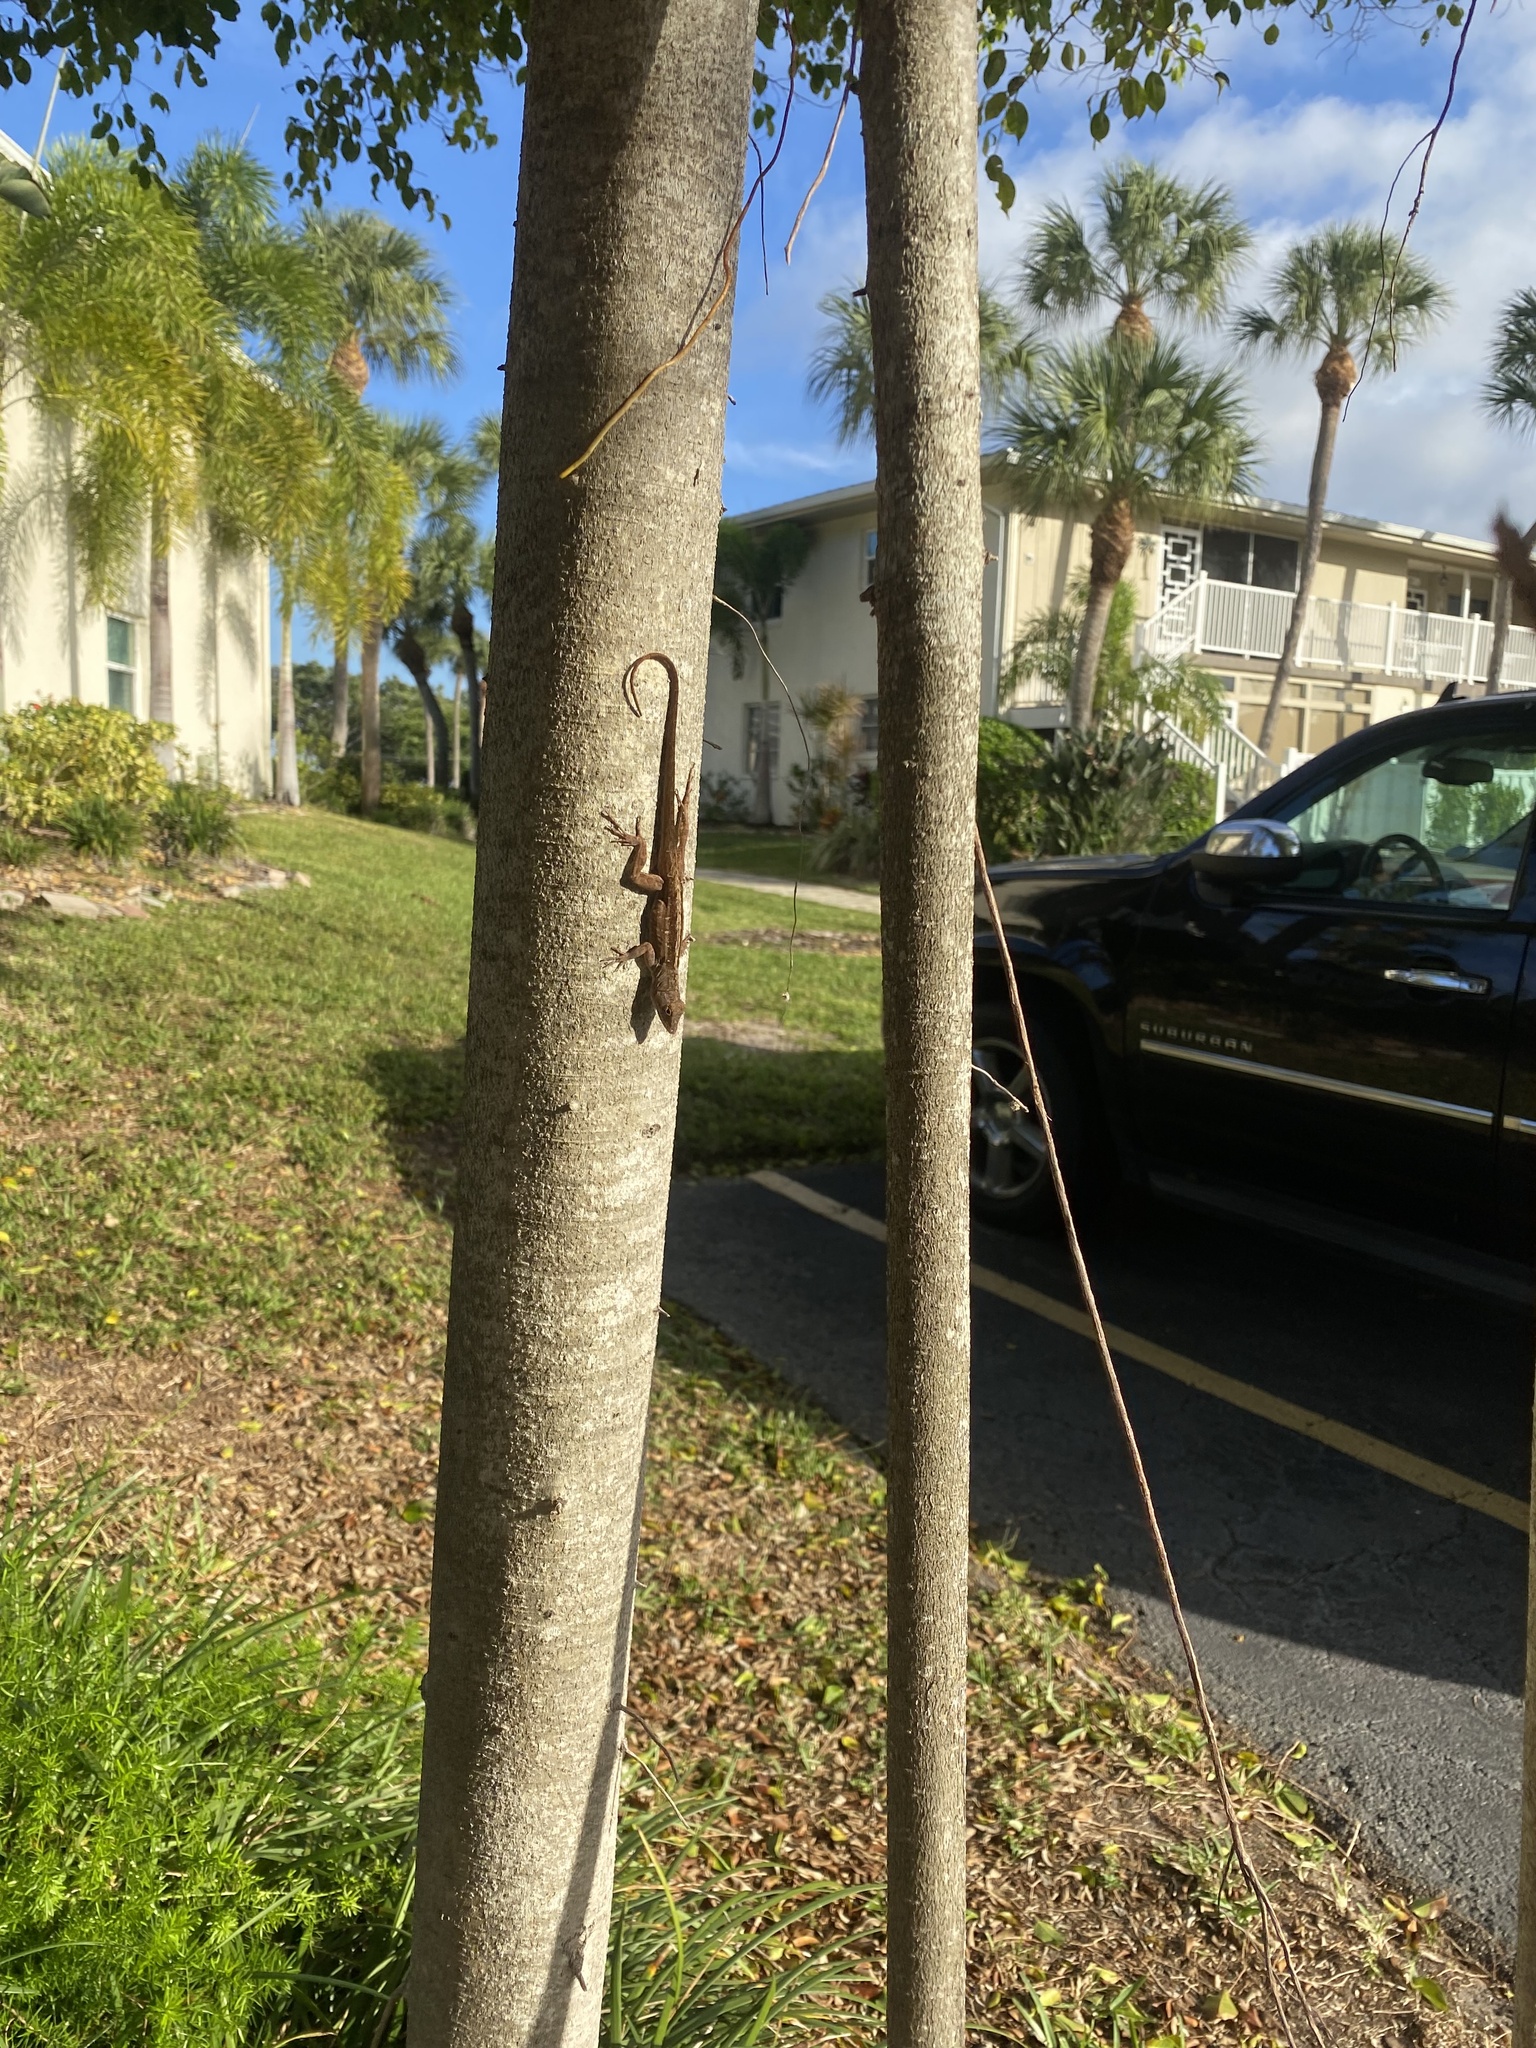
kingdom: Animalia
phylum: Chordata
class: Squamata
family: Dactyloidae
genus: Anolis
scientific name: Anolis sagrei
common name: Brown anole
